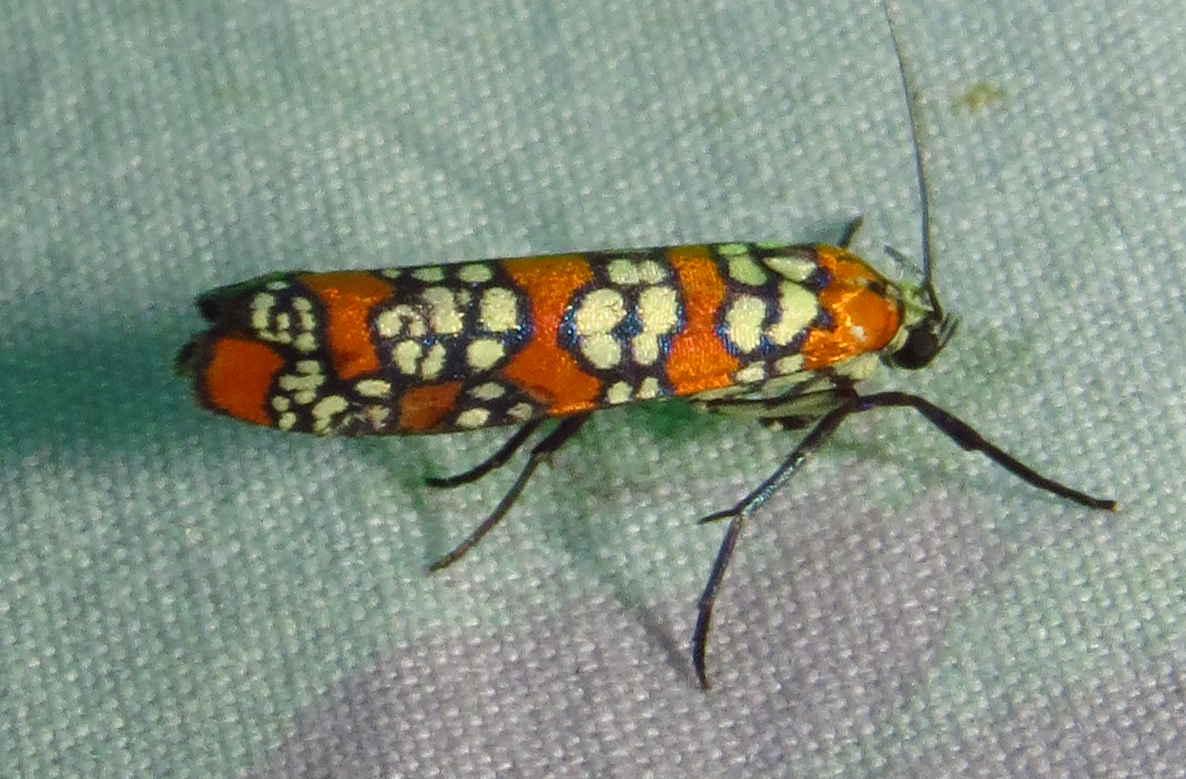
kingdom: Animalia
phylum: Arthropoda
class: Insecta
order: Lepidoptera
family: Attevidae
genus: Atteva
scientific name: Atteva punctella
